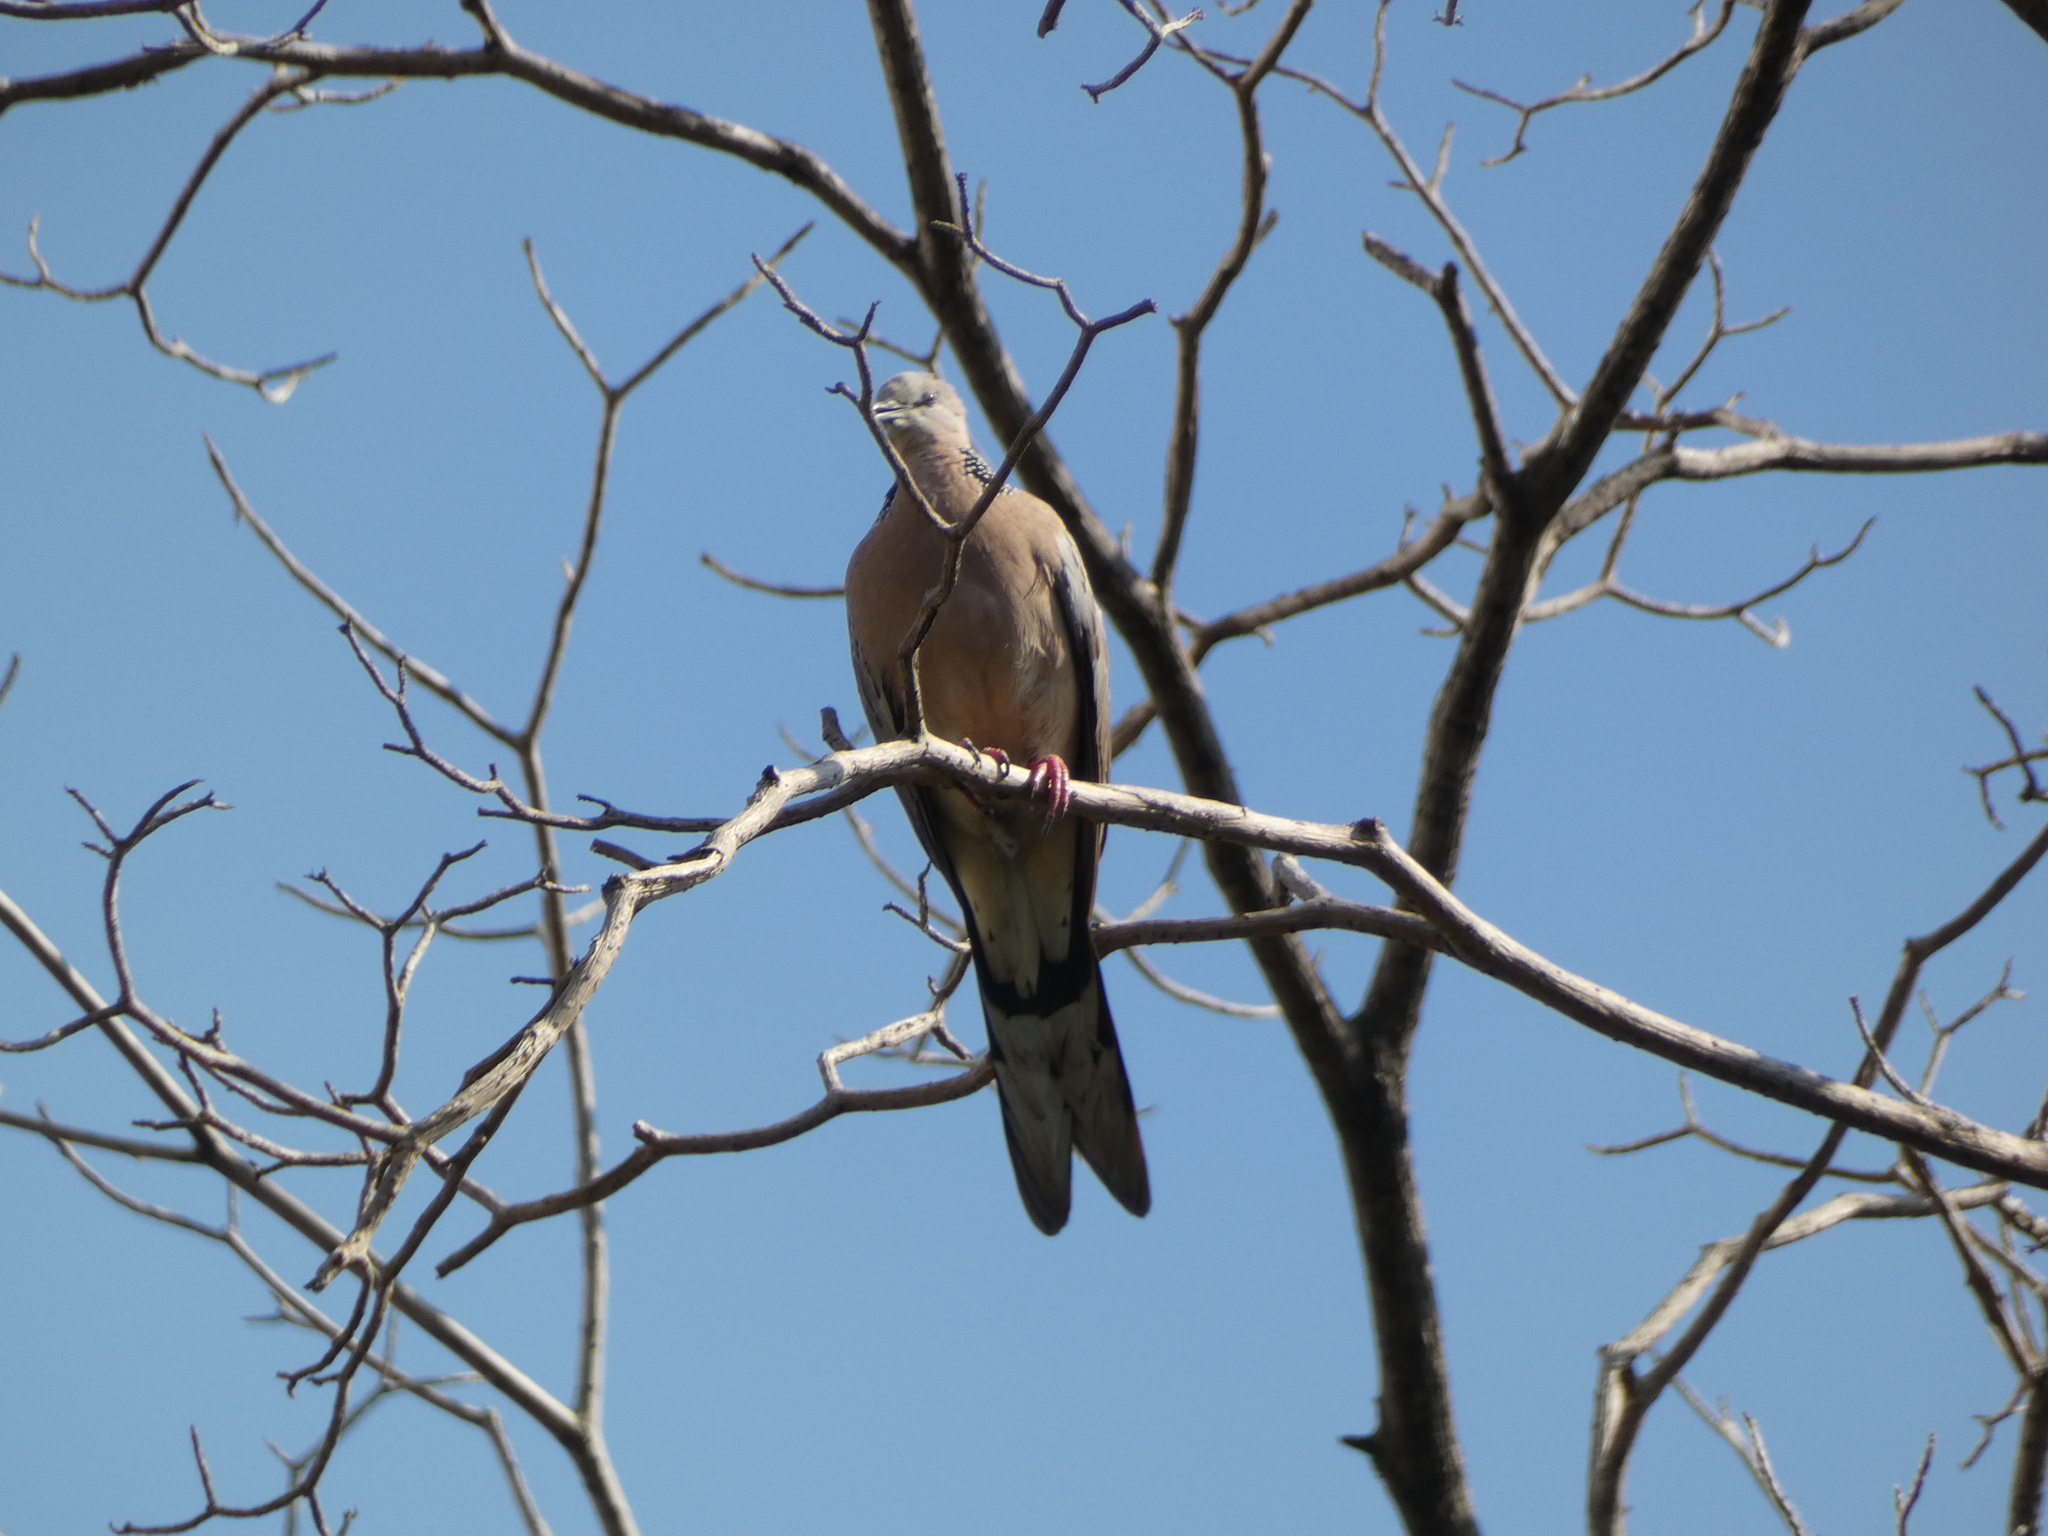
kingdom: Animalia
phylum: Chordata
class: Aves
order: Columbiformes
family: Columbidae
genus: Spilopelia
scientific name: Spilopelia chinensis
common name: Spotted dove
